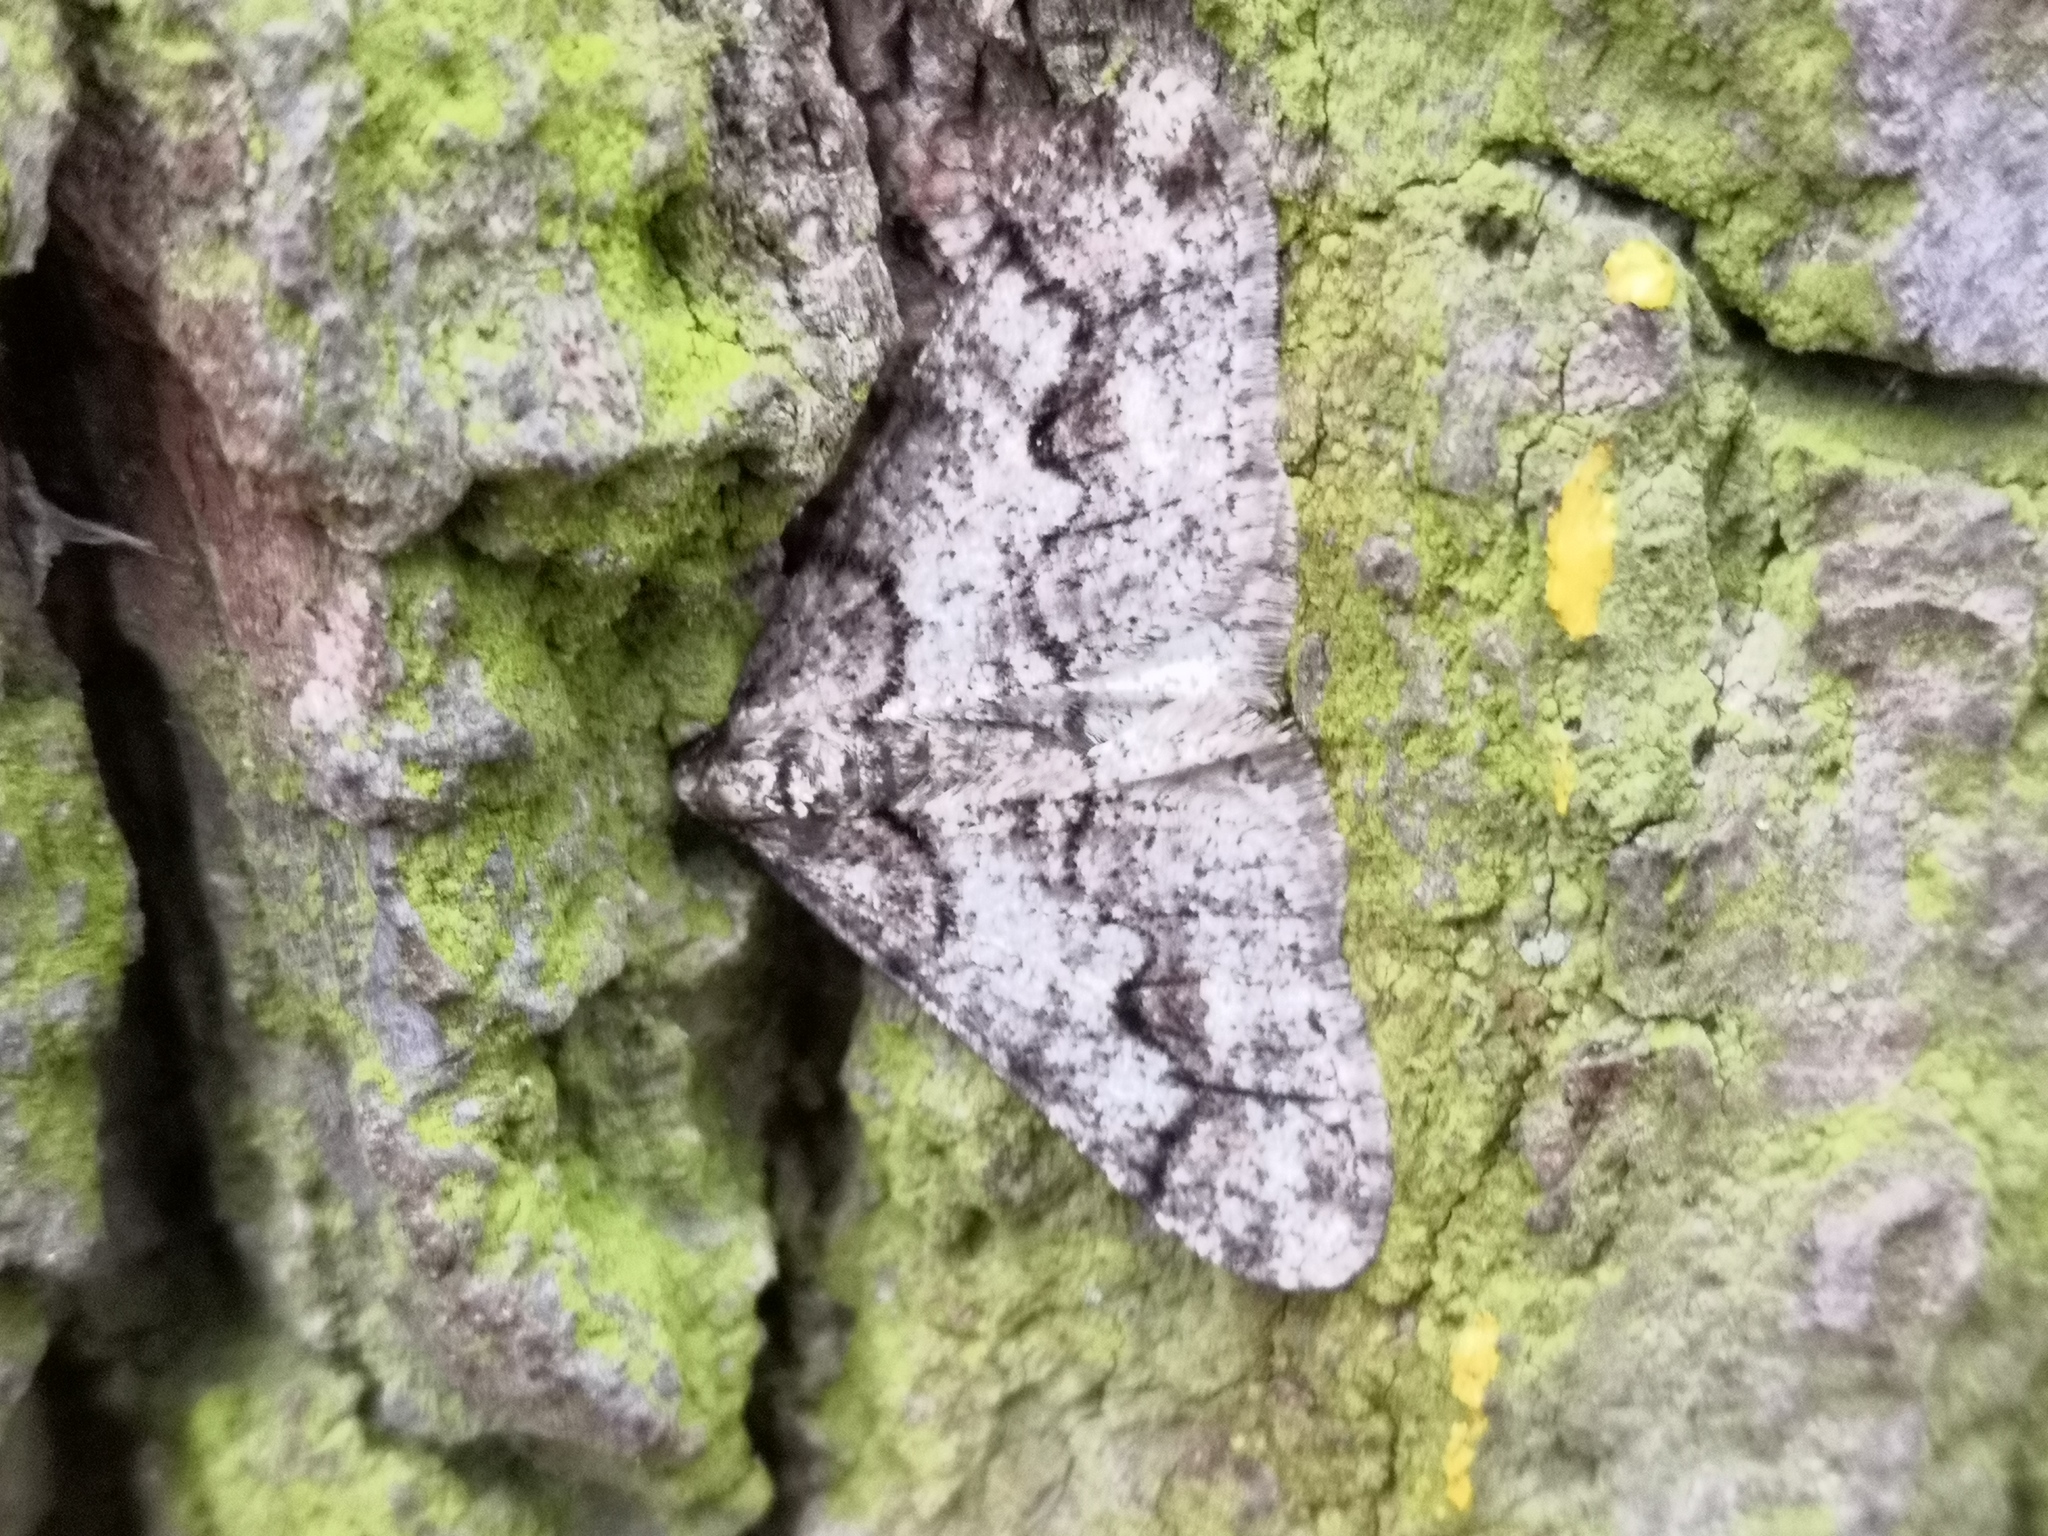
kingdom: Animalia
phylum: Arthropoda
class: Insecta
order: Lepidoptera
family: Geometridae
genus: Agriopis
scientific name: Agriopis leucophaearia
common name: Spring usher
